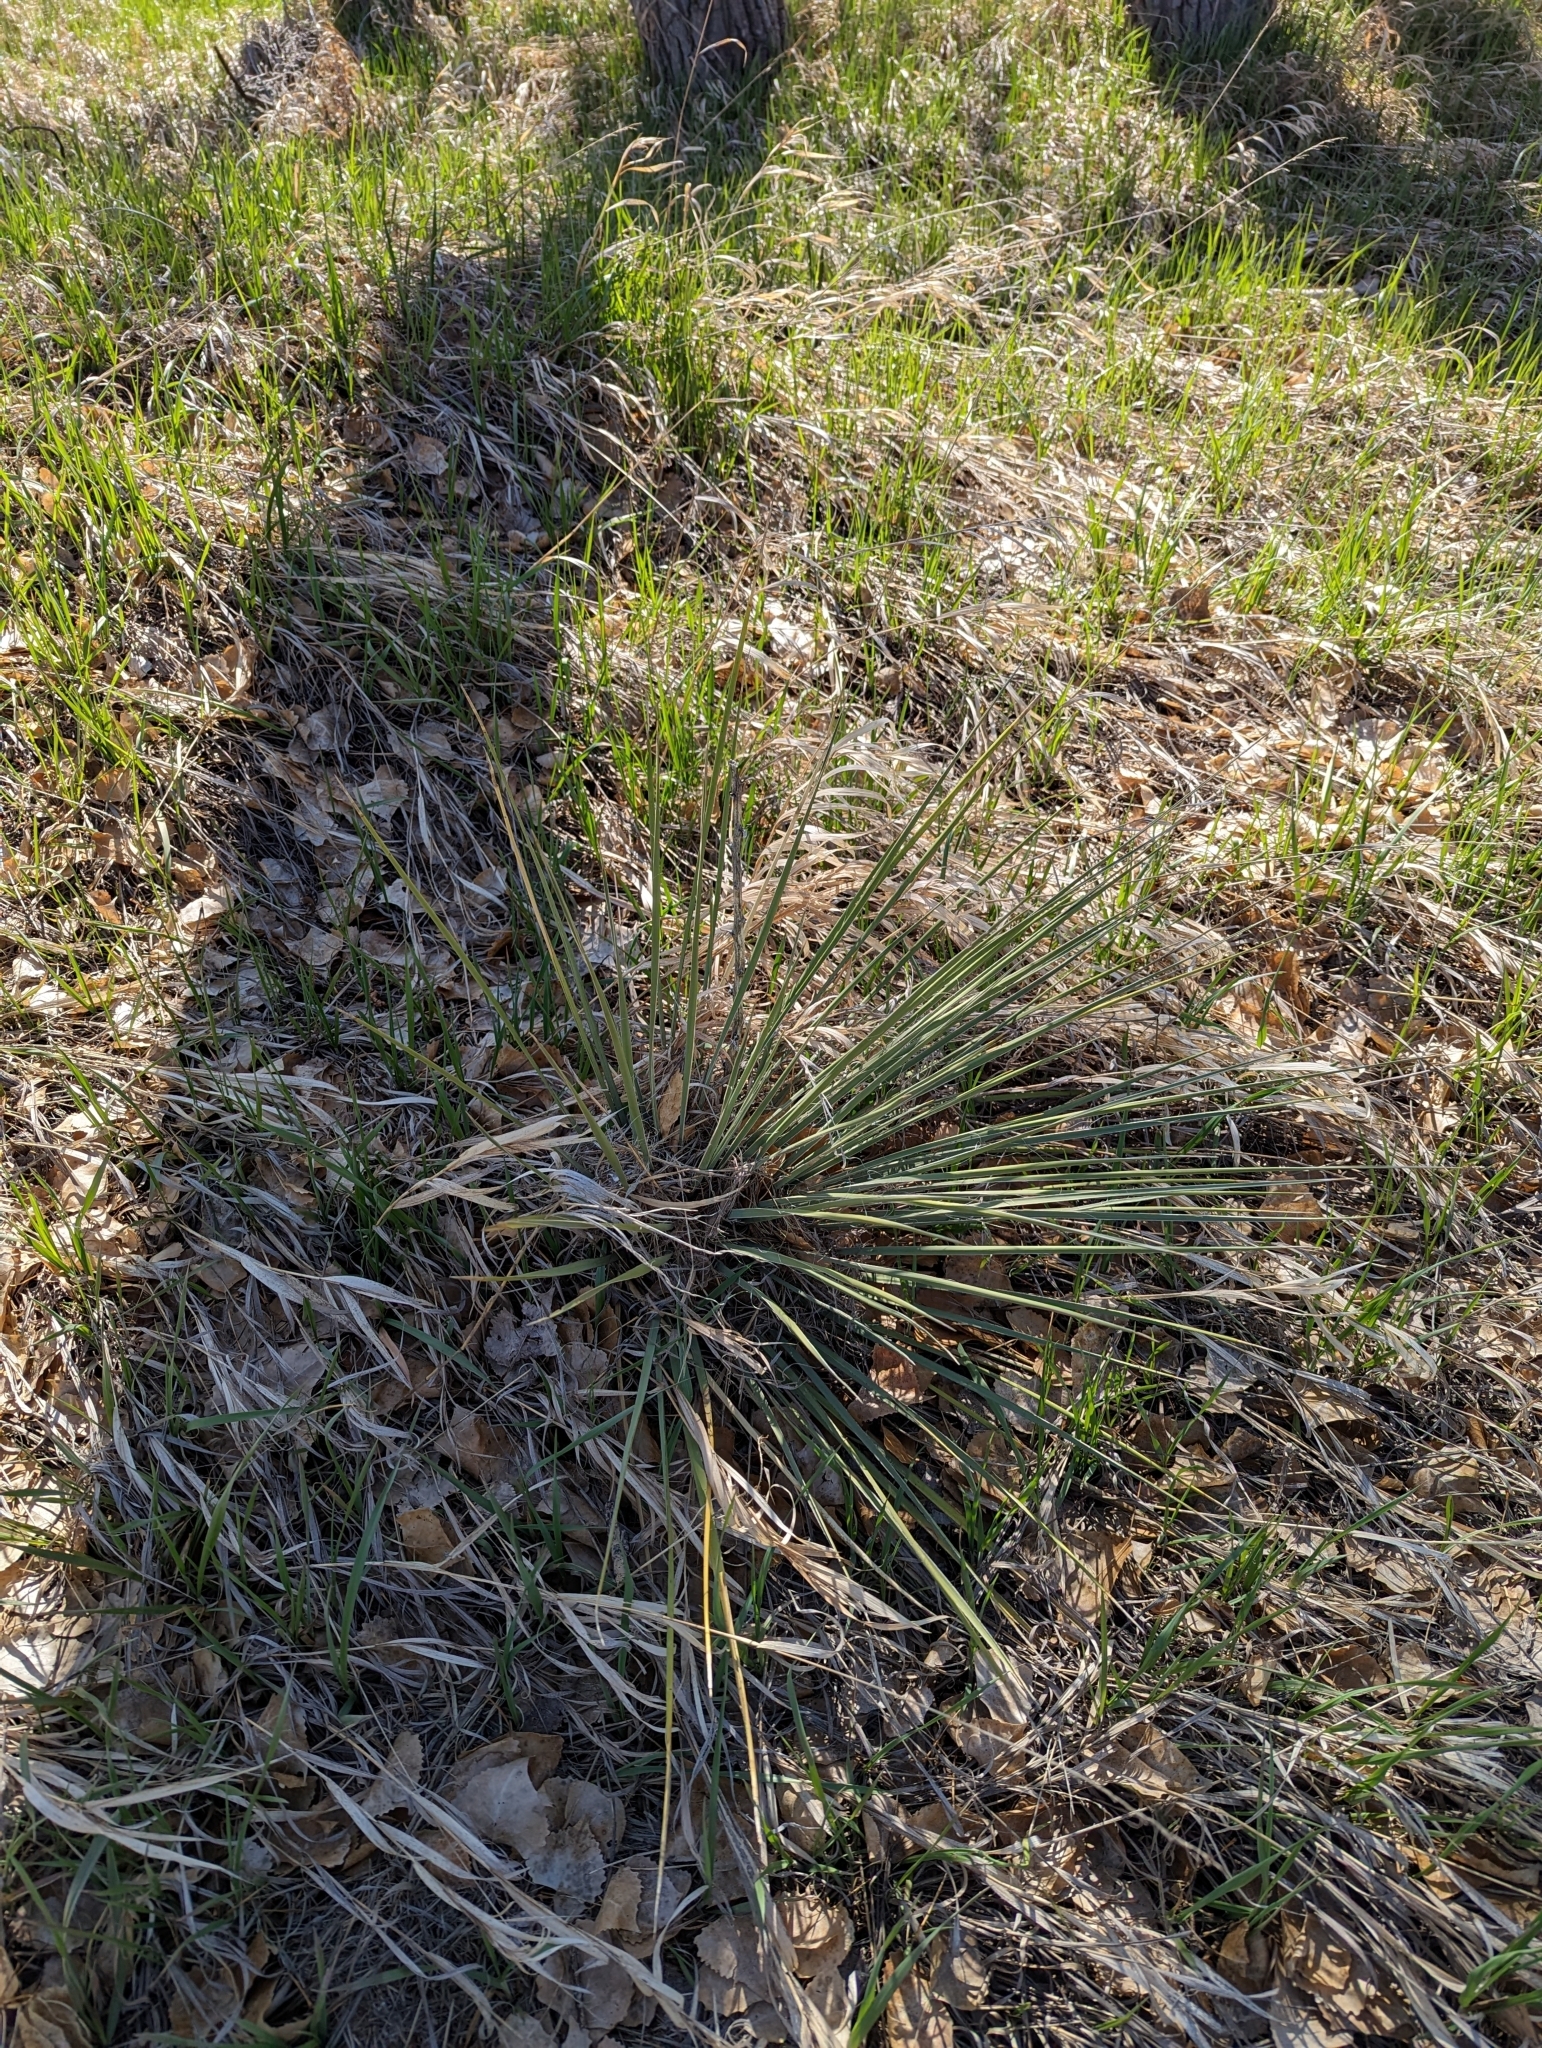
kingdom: Plantae
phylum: Tracheophyta
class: Liliopsida
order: Asparagales
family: Asparagaceae
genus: Yucca
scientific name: Yucca glauca
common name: Great plains yucca
